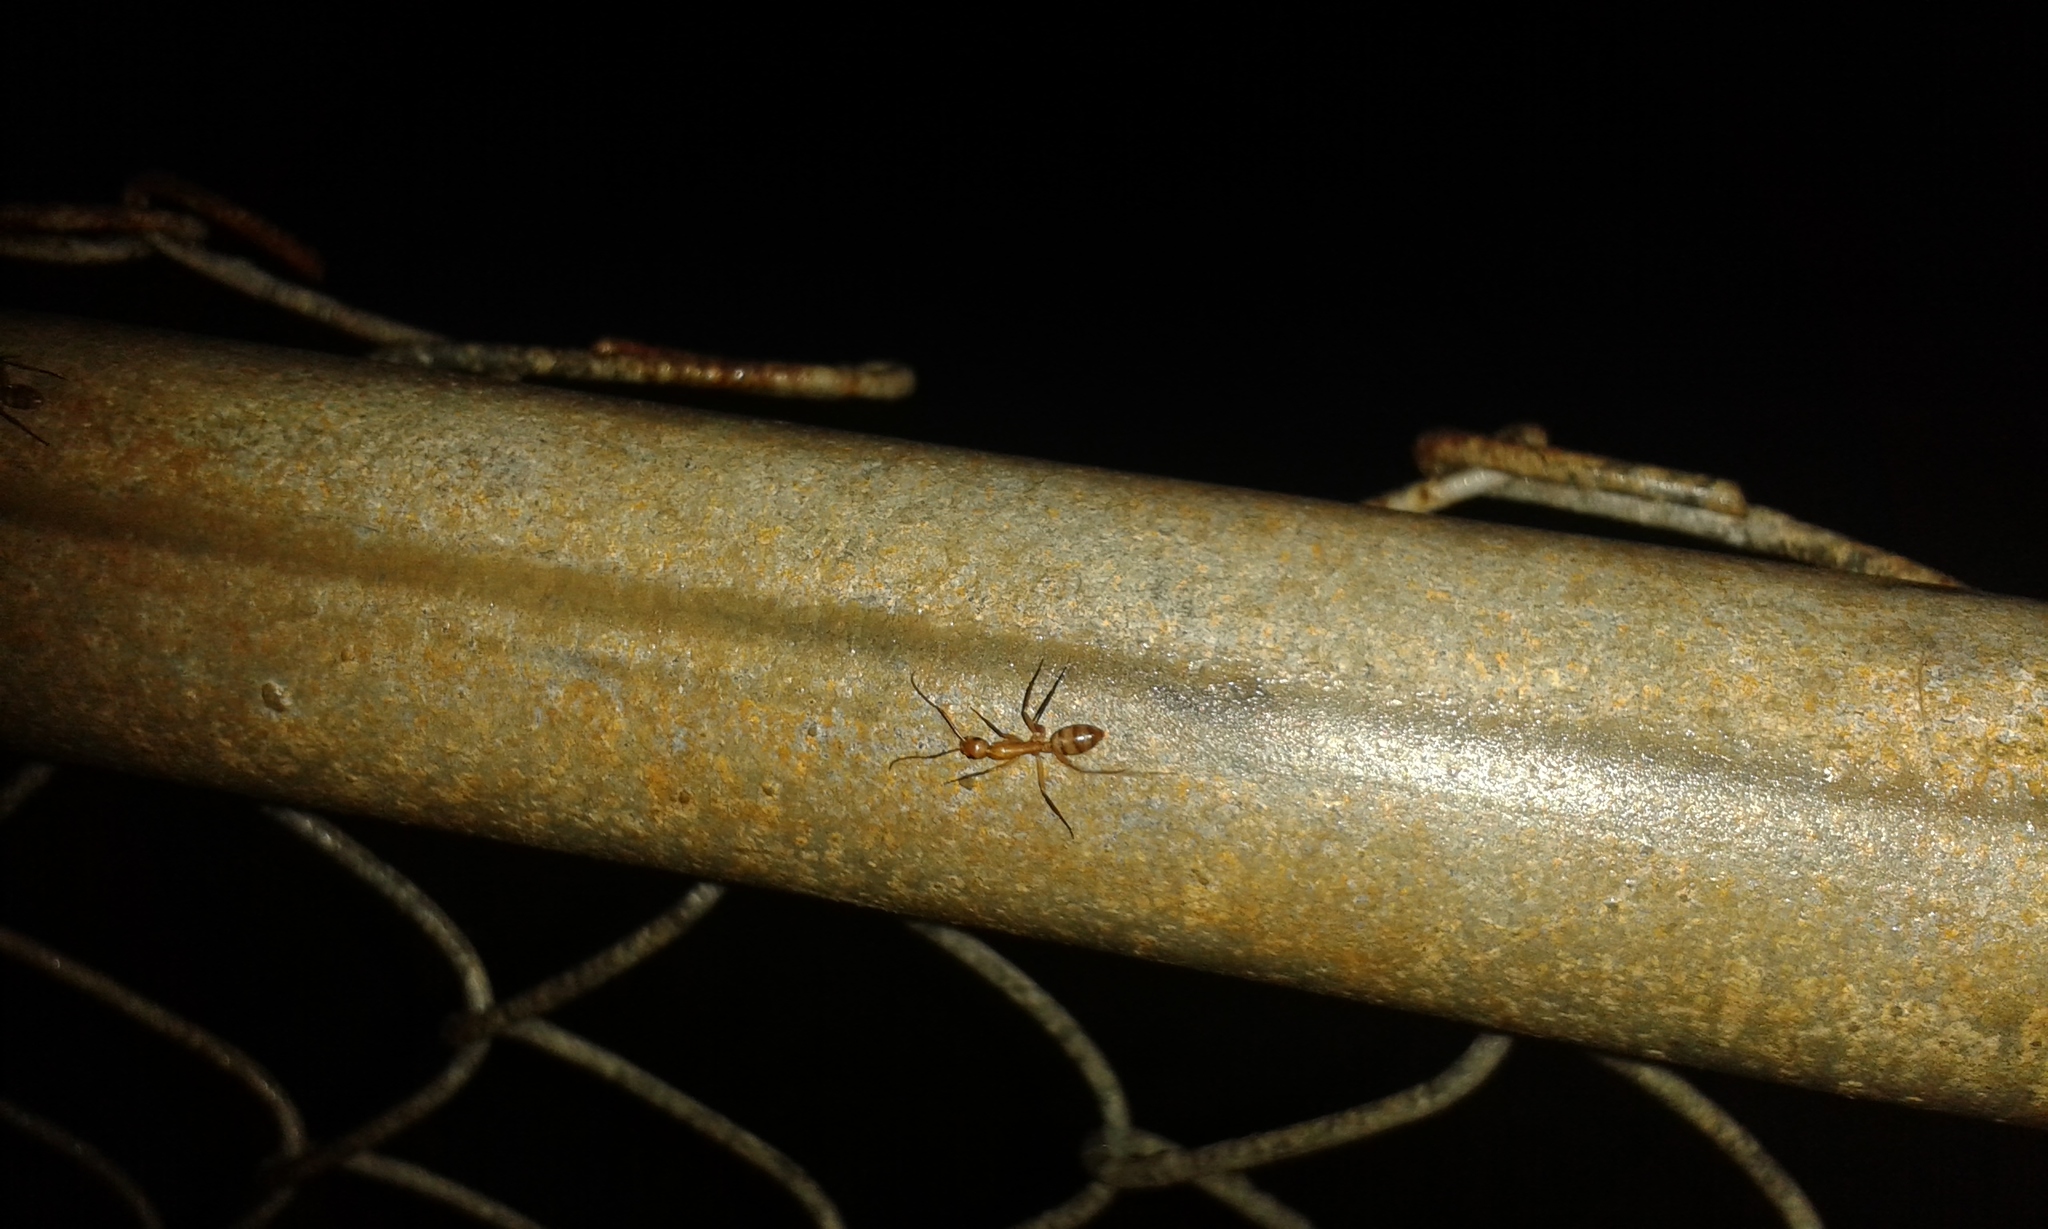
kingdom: Animalia
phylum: Arthropoda
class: Insecta
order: Hymenoptera
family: Formicidae
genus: Camponotus
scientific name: Camponotus variegatus
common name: Hawaiian carpenter ant
